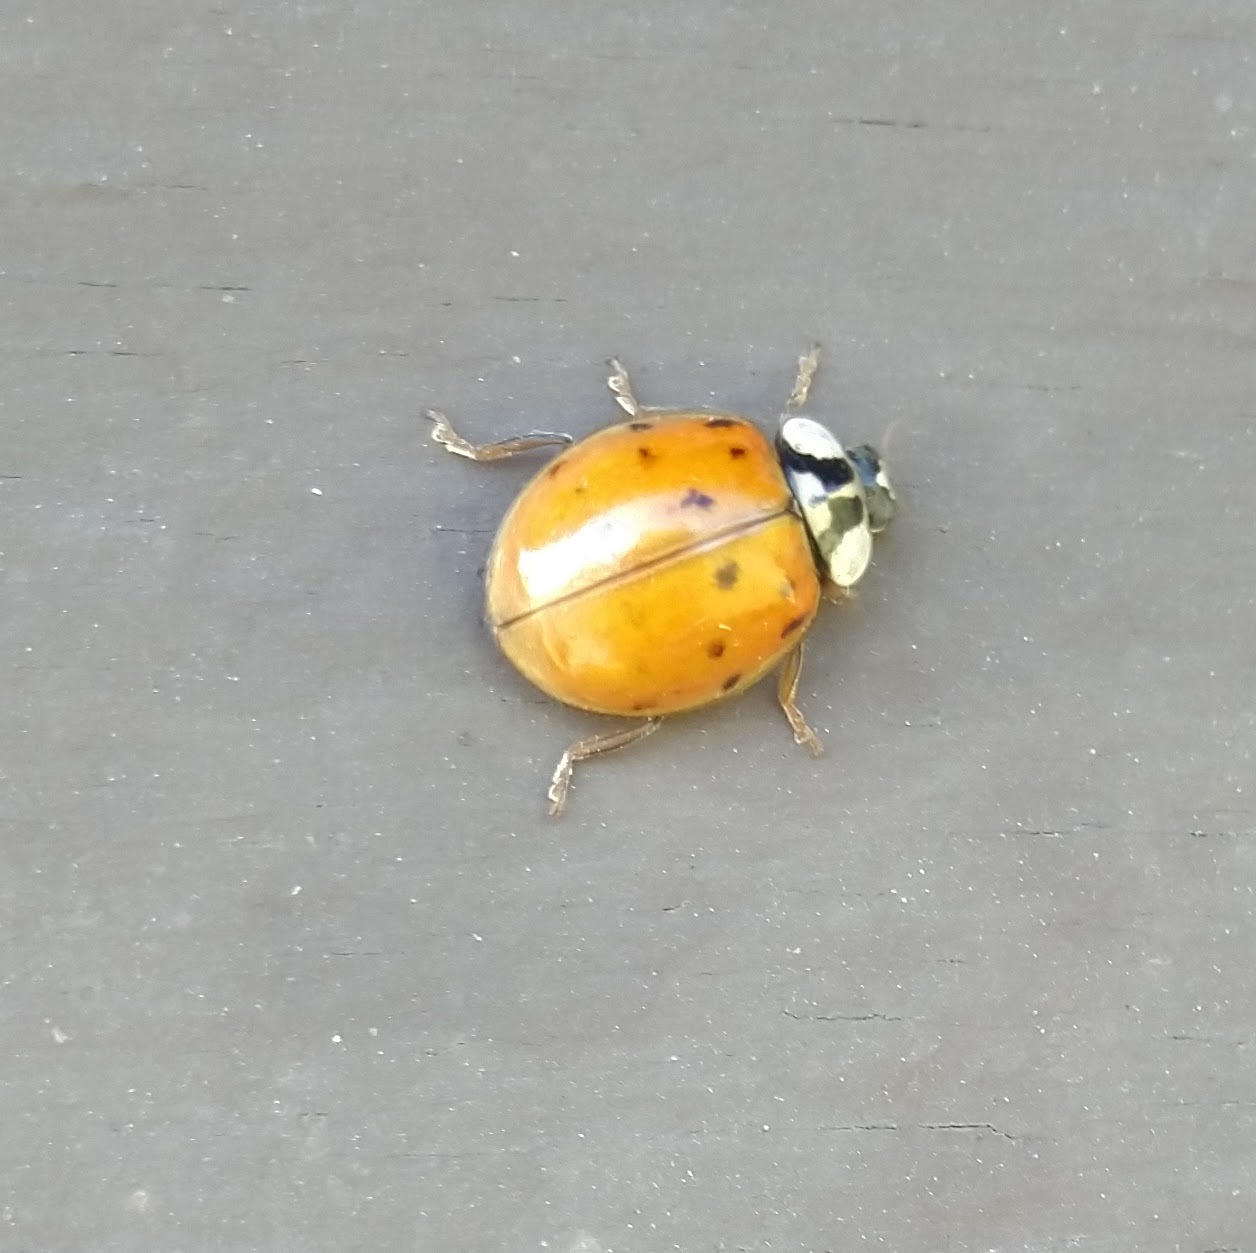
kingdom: Animalia
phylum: Arthropoda
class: Insecta
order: Coleoptera
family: Coccinellidae
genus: Harmonia
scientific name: Harmonia axyridis
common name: Harlequin ladybird
